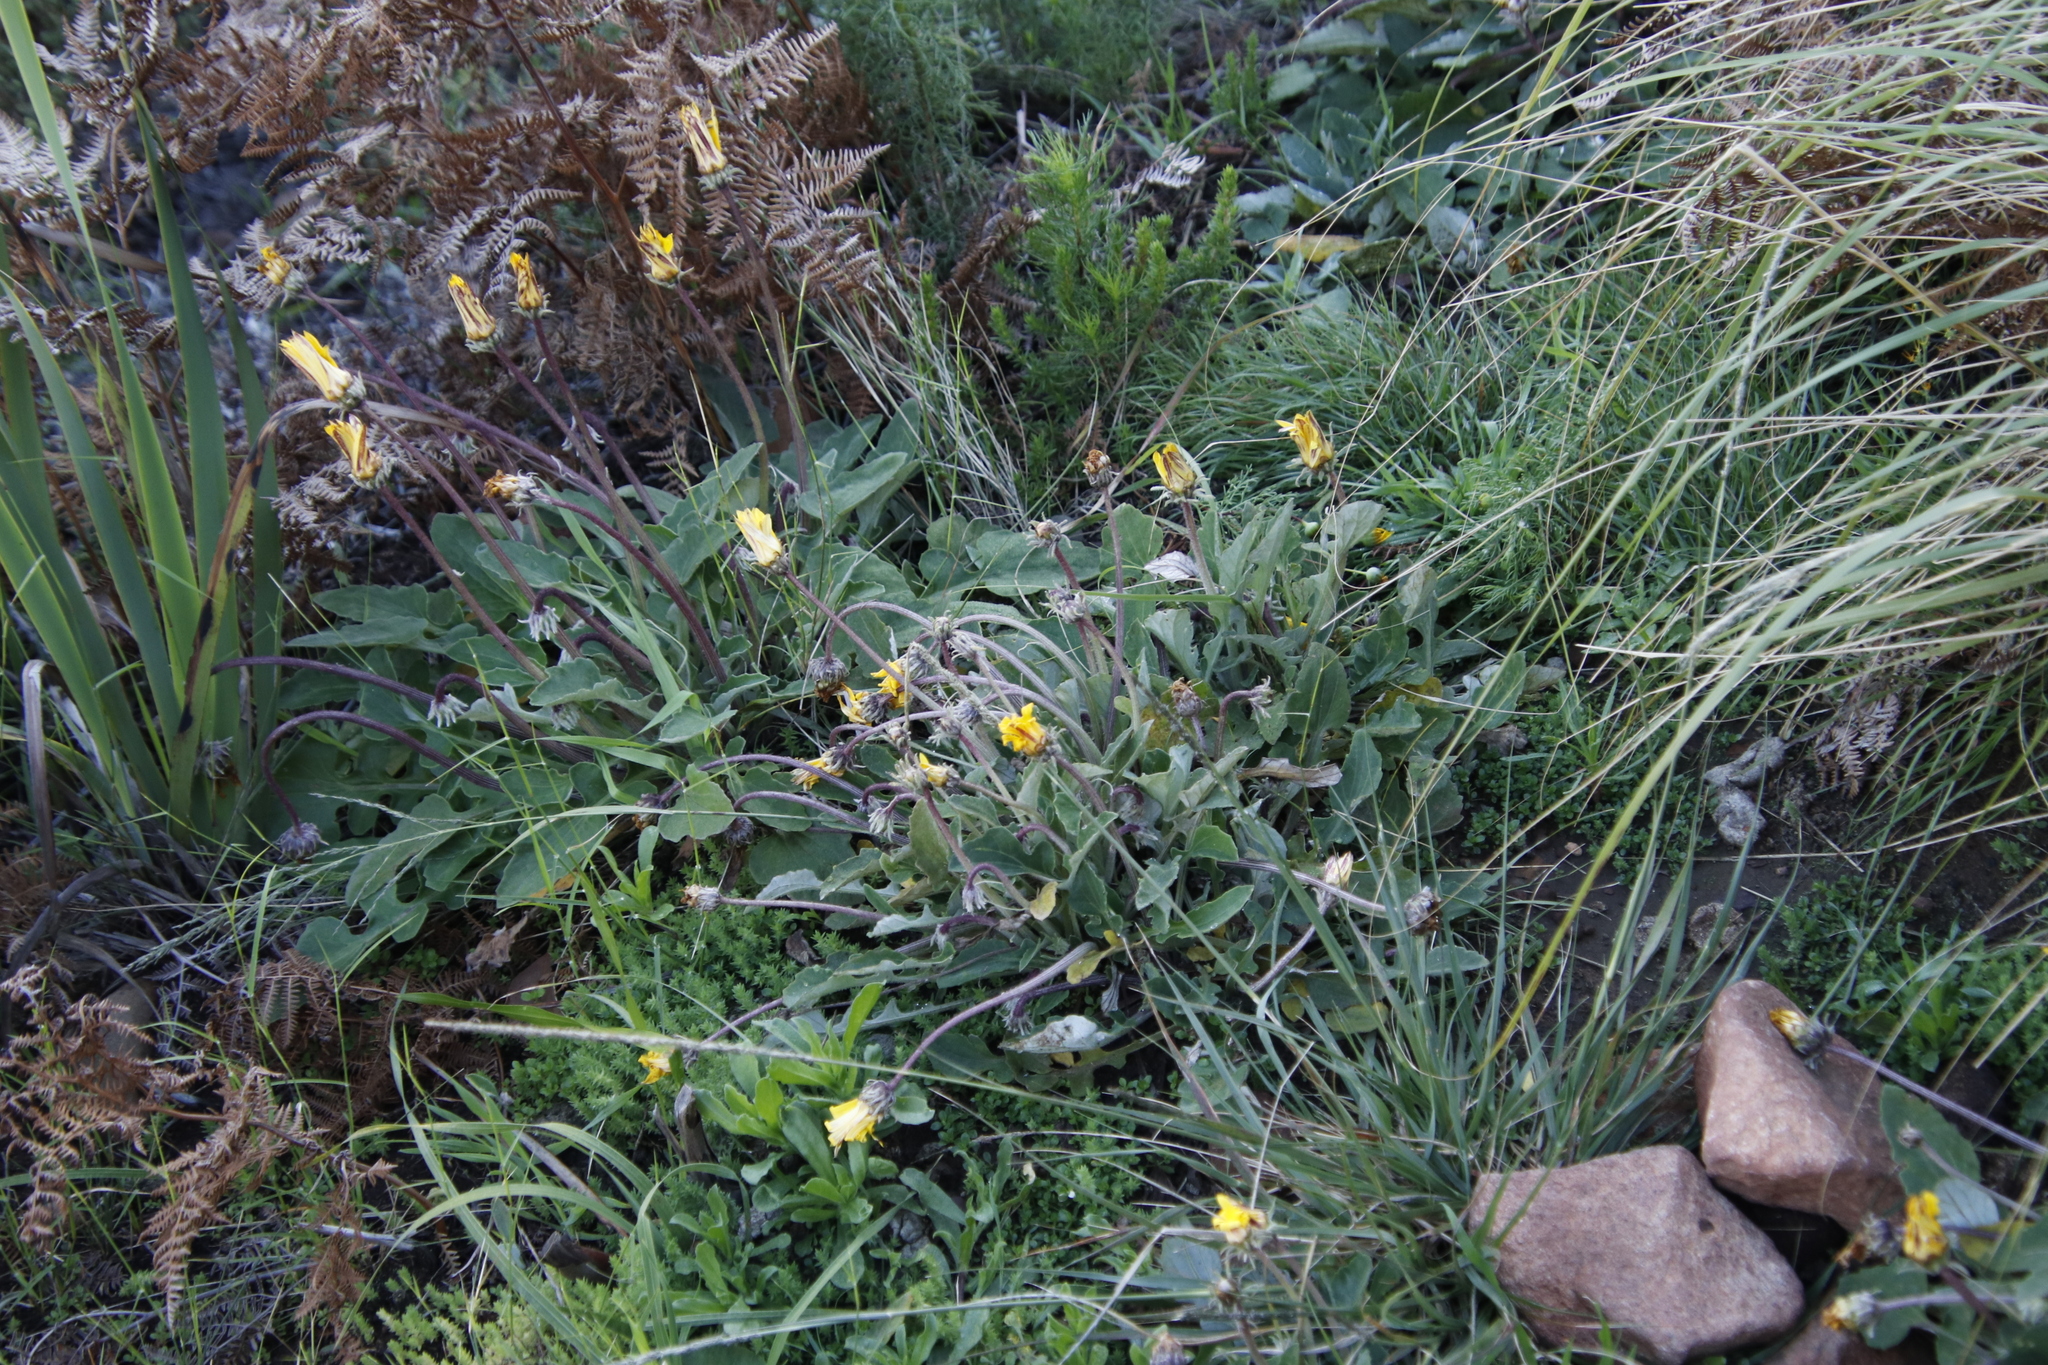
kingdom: Plantae
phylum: Tracheophyta
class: Magnoliopsida
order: Asterales
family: Asteraceae
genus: Arctotis
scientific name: Arctotis acaulis
